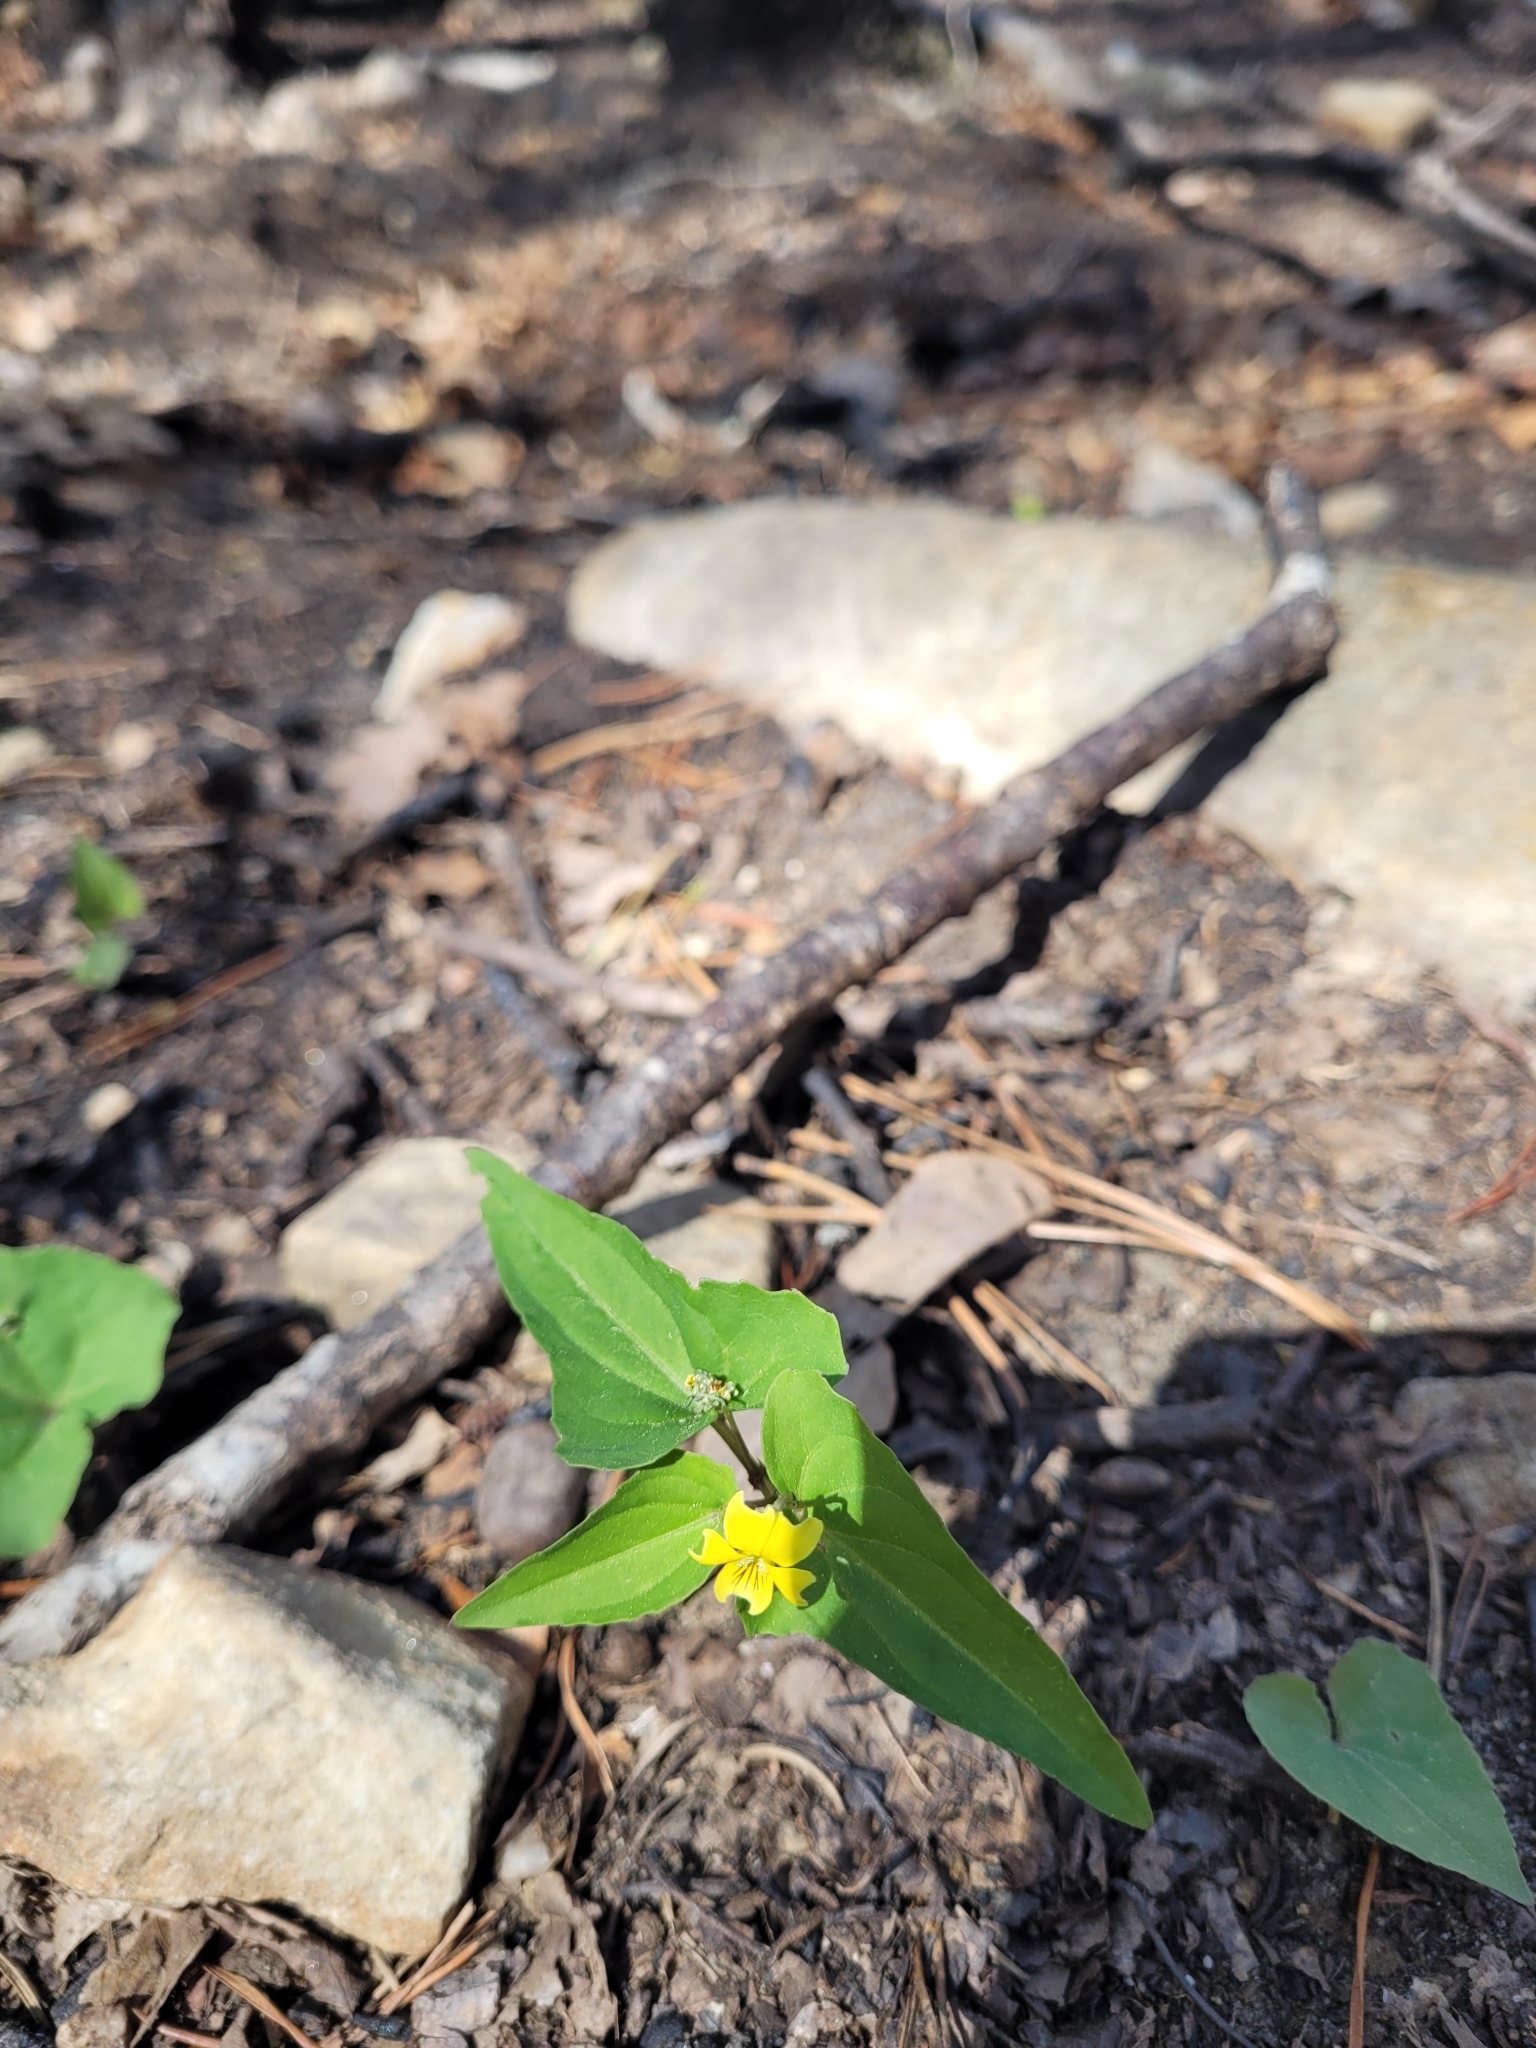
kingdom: Plantae
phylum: Tracheophyta
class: Magnoliopsida
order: Malpighiales
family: Violaceae
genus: Viola
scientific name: Viola hastata
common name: Spear-leaf violet
